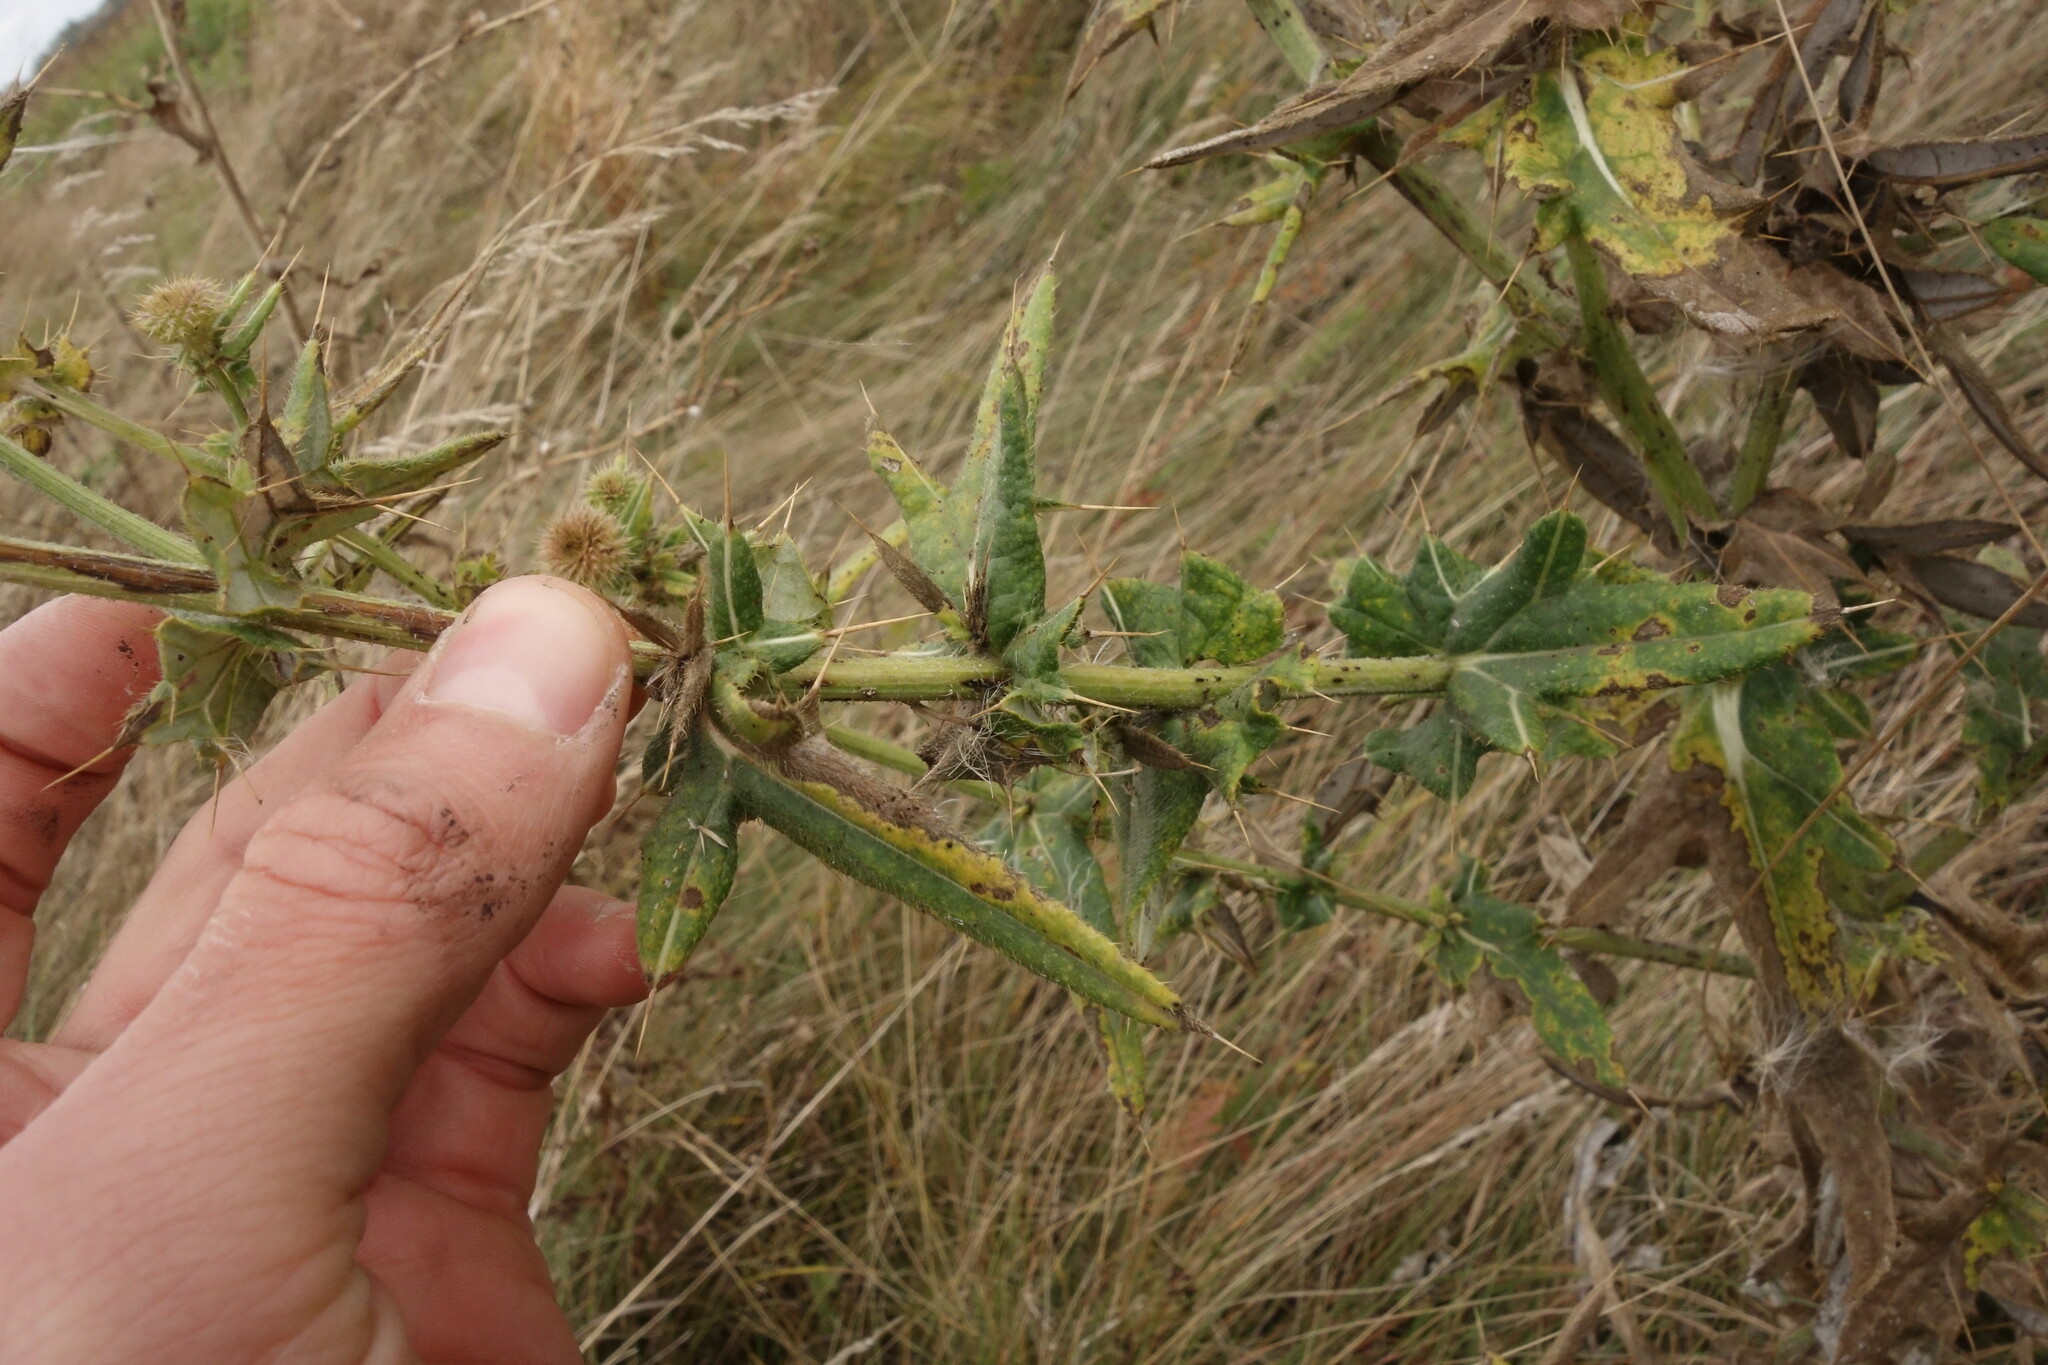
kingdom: Plantae
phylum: Tracheophyta
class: Magnoliopsida
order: Asterales
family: Asteraceae
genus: Cirsium
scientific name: Cirsium serrulatum
